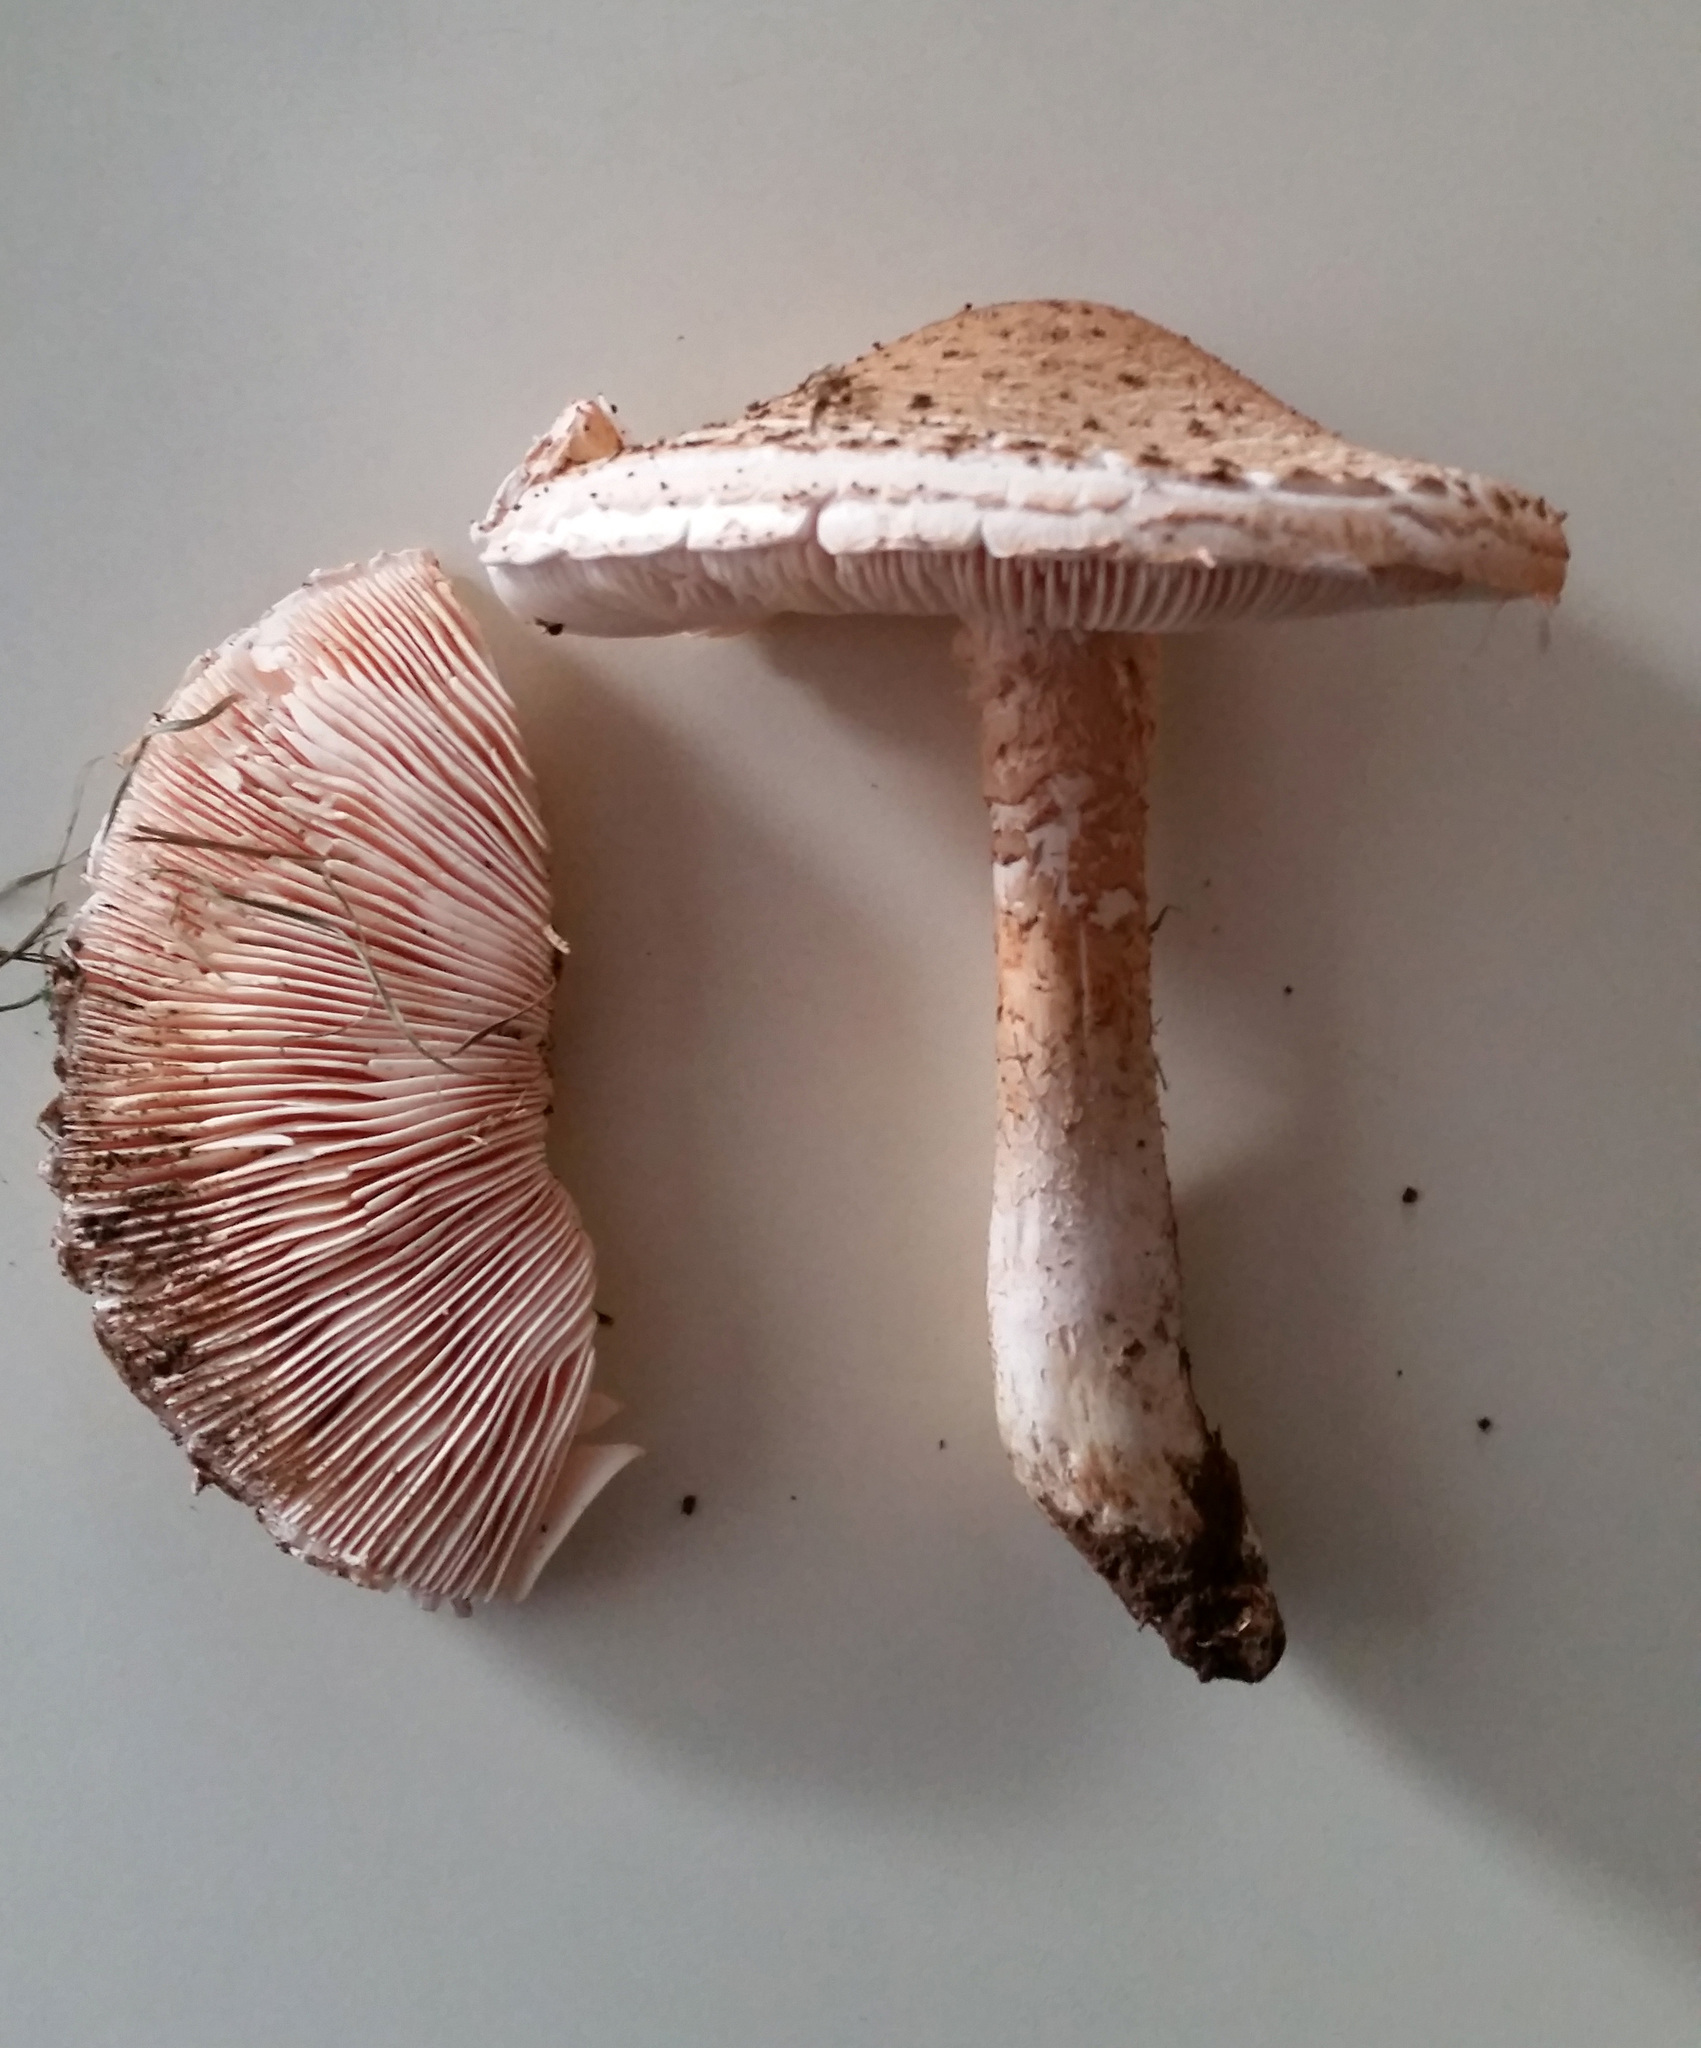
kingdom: Fungi
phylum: Basidiomycota
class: Agaricomycetes
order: Agaricales
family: Amanitaceae
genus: Amanita
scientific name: Amanita nauseosa
